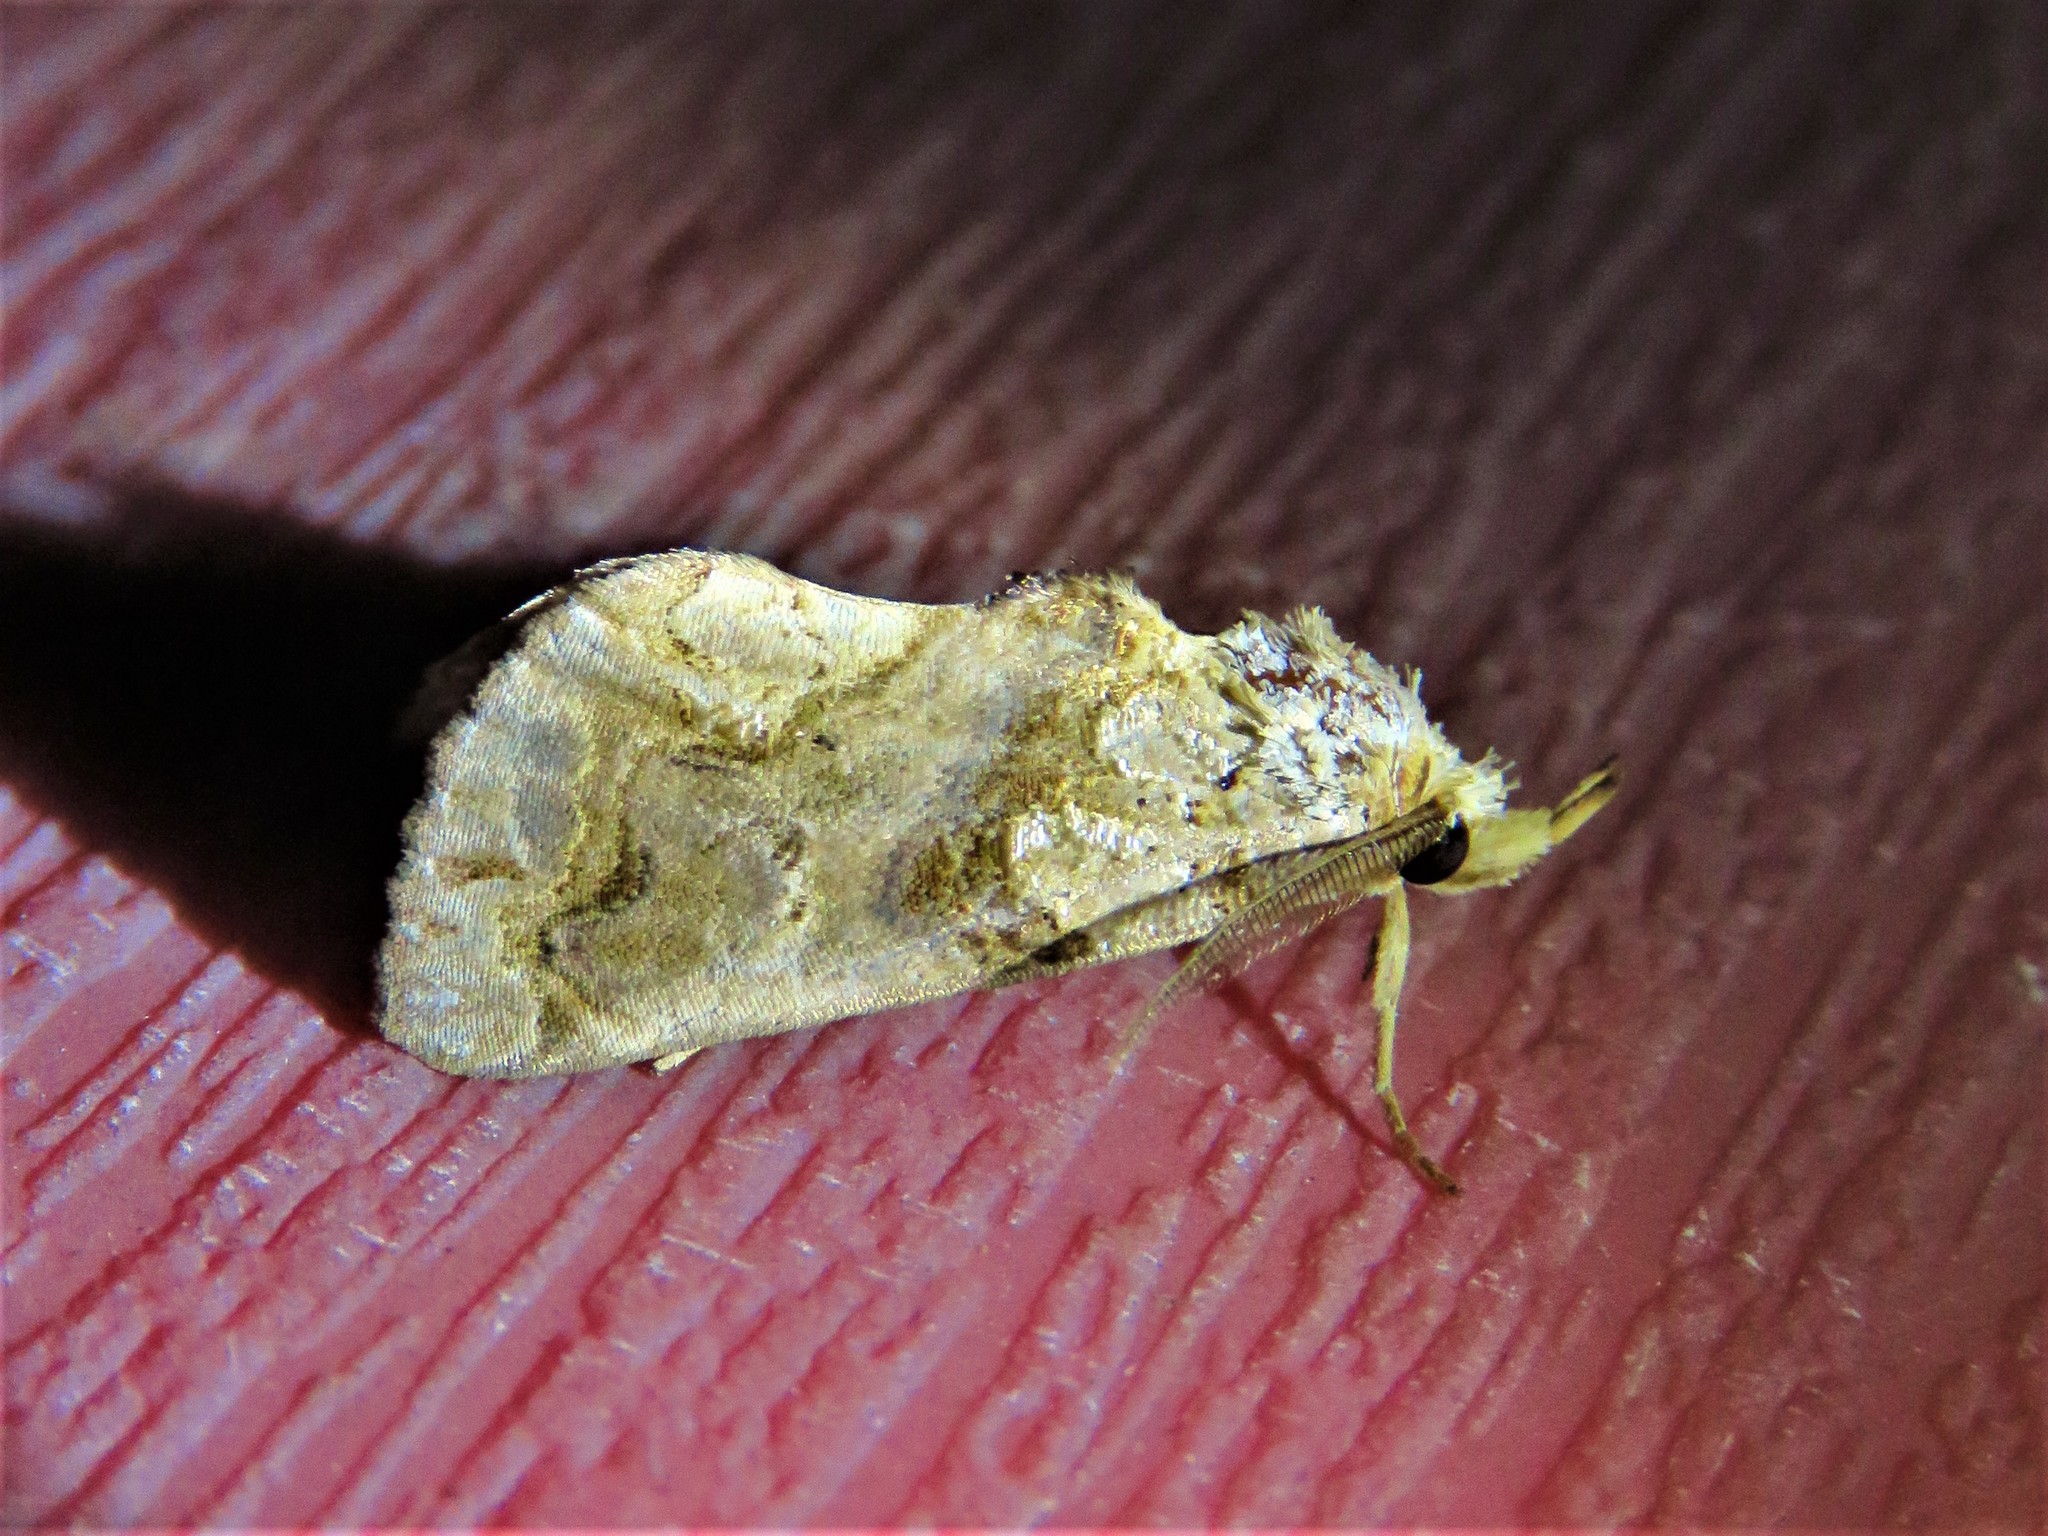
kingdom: Animalia
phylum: Arthropoda
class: Insecta
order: Lepidoptera
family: Erebidae
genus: Plusiodonta
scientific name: Plusiodonta compressipalpis
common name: Moonseed moth
